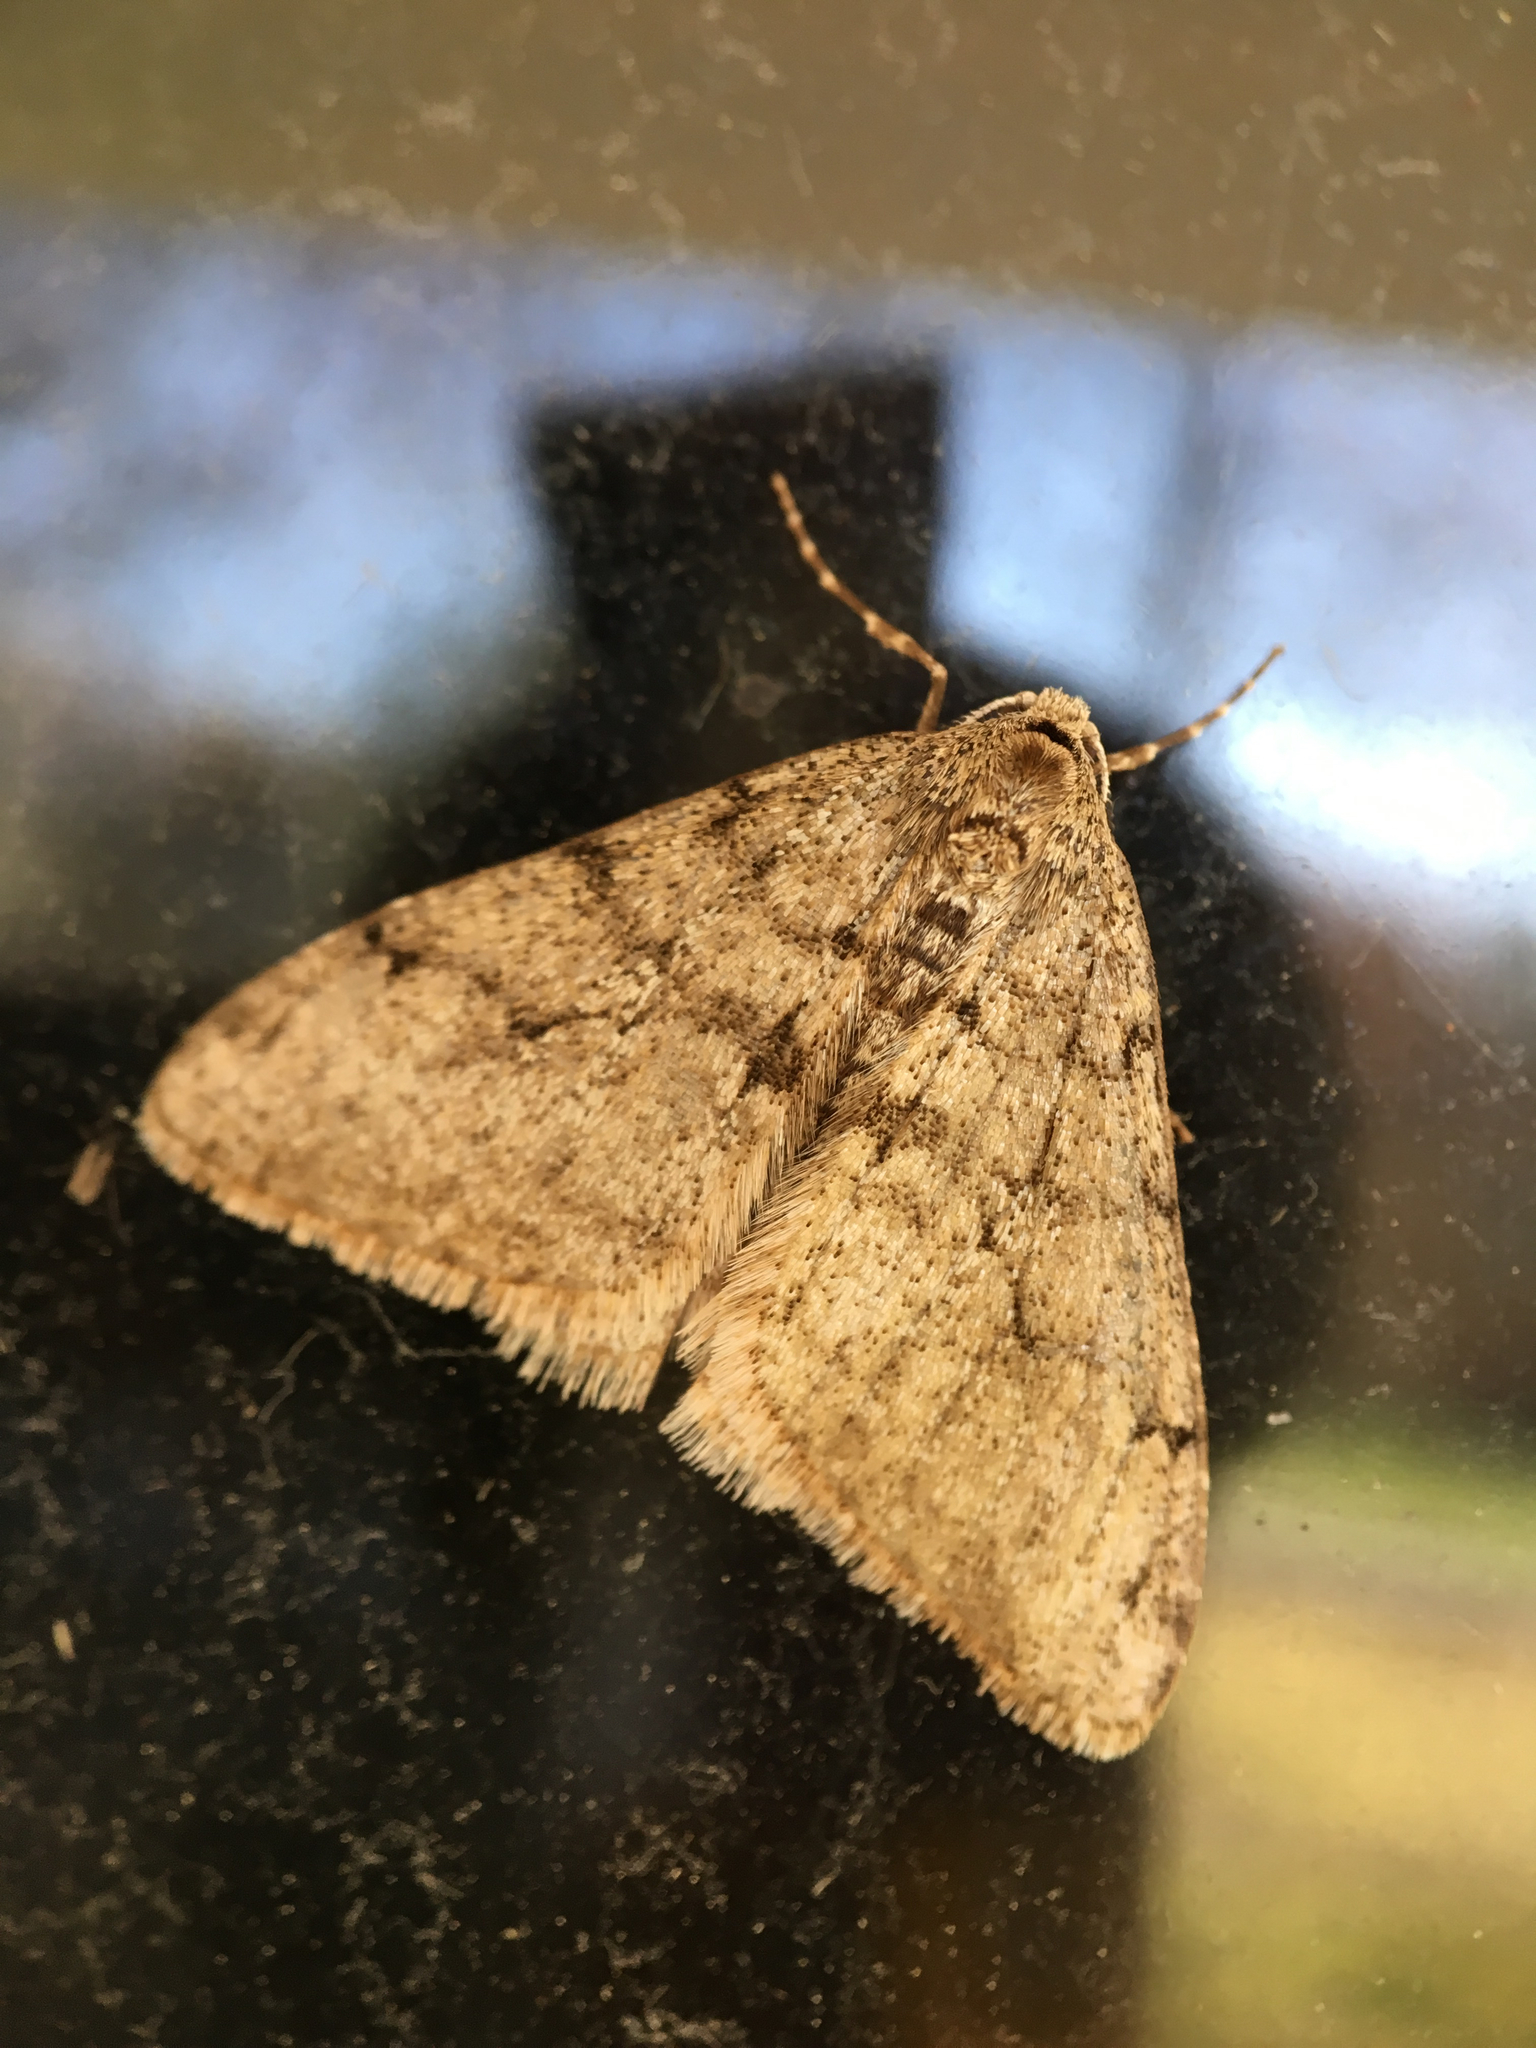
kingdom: Animalia
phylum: Arthropoda
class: Insecta
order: Lepidoptera
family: Geometridae
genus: Phigalia
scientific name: Phigalia strigataria
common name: Small phigalia
